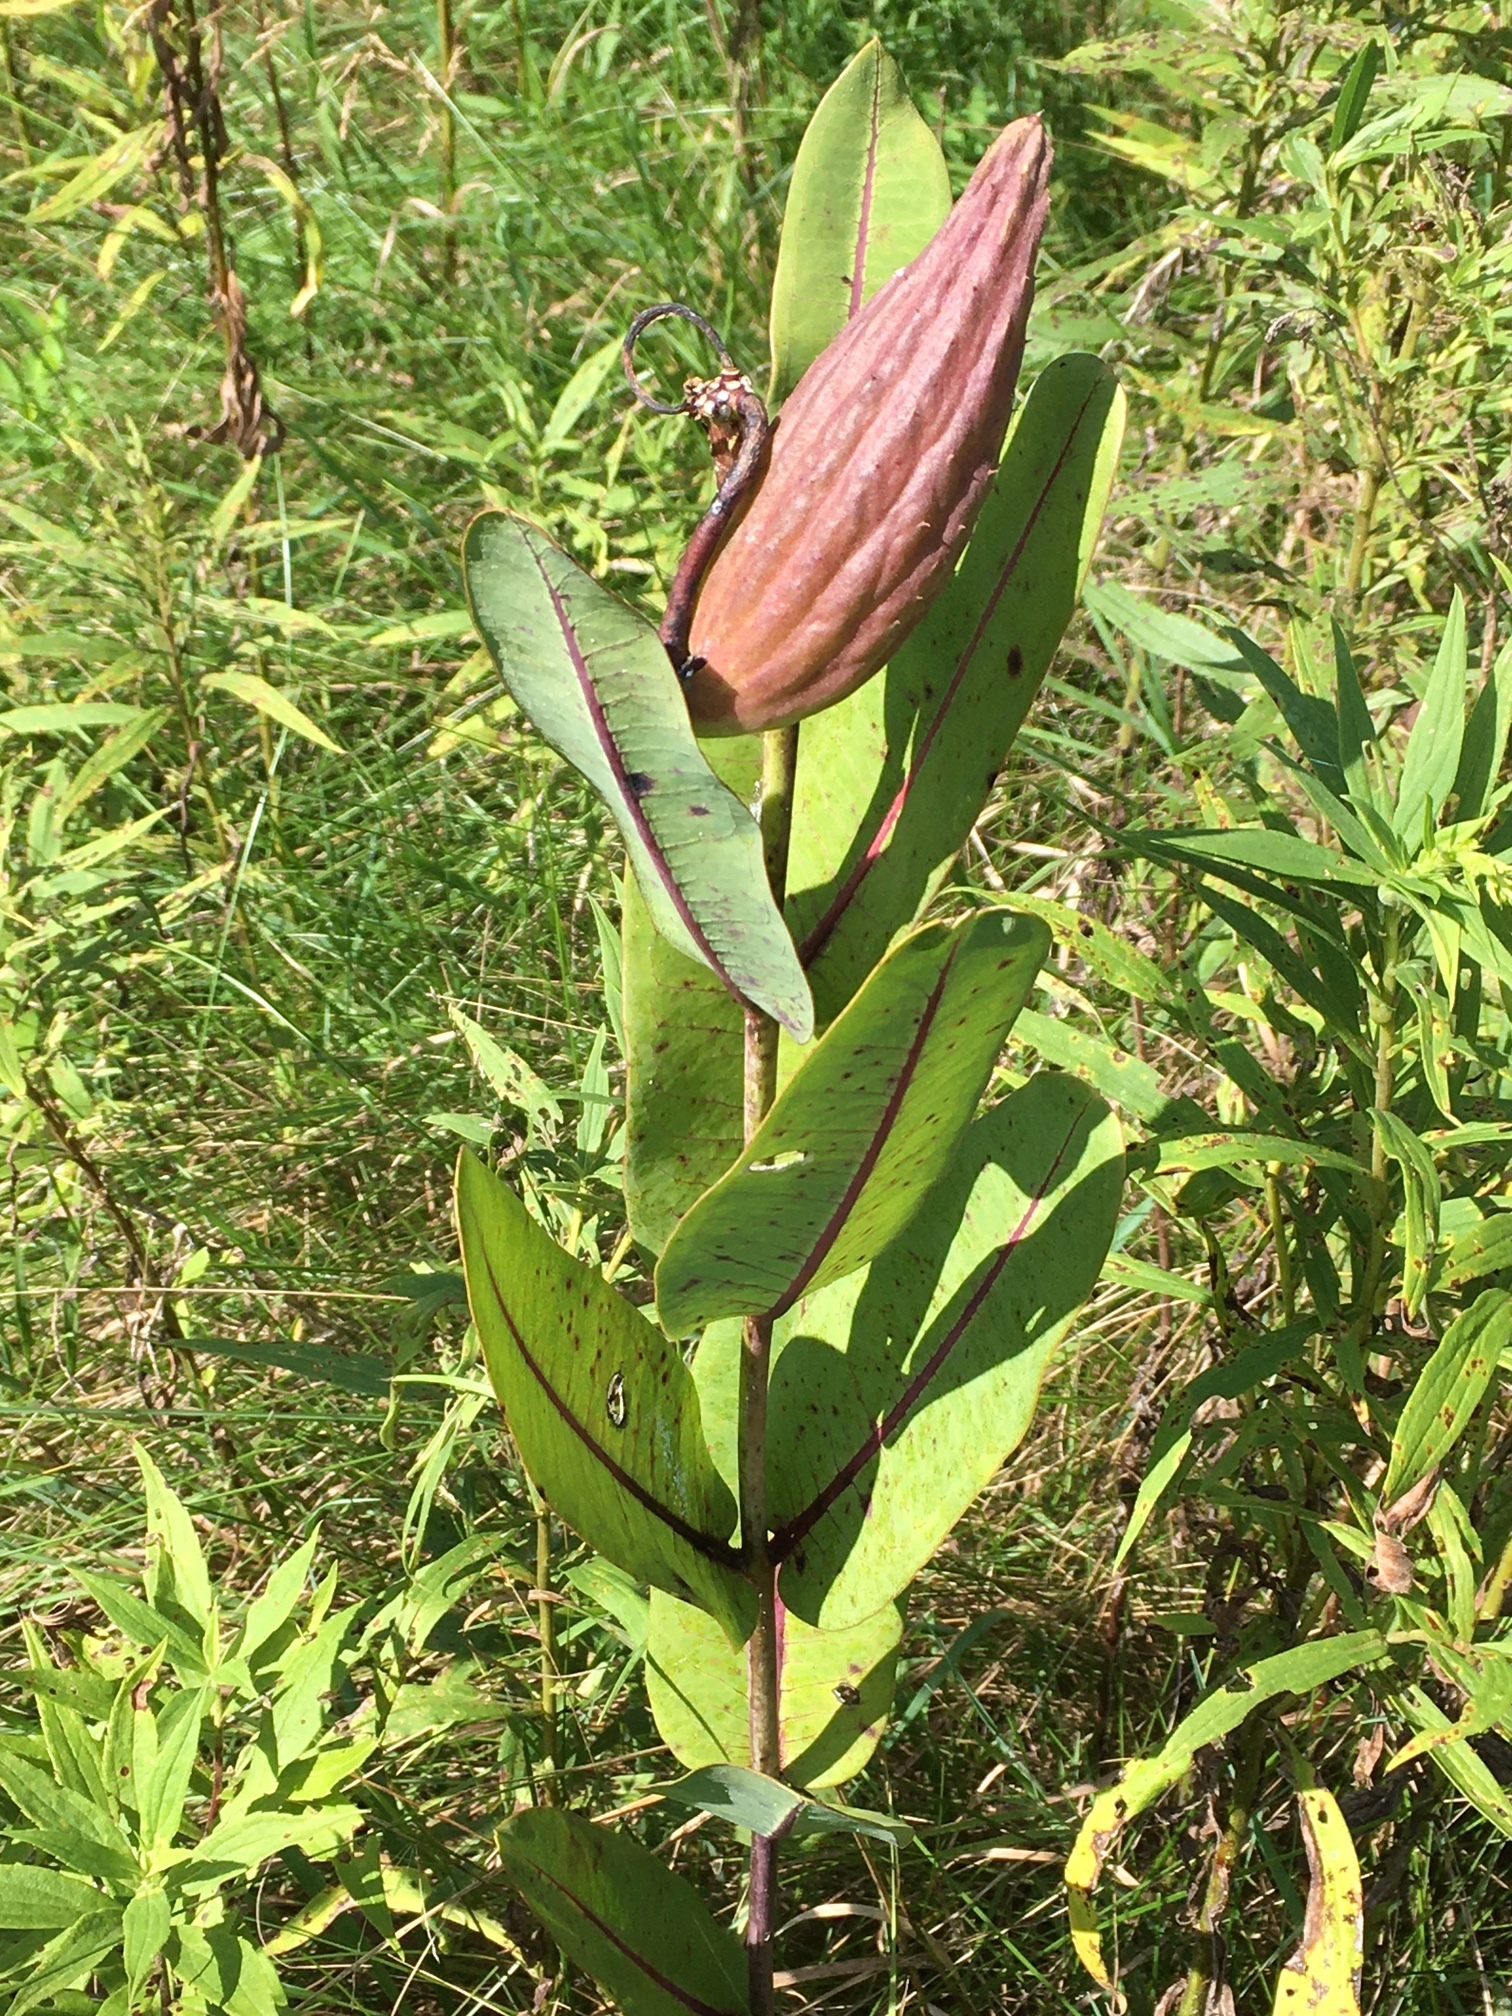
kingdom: Plantae
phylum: Tracheophyta
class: Magnoliopsida
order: Gentianales
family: Apocynaceae
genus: Asclepias
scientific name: Asclepias sullivantii
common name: Prairie milkweed
